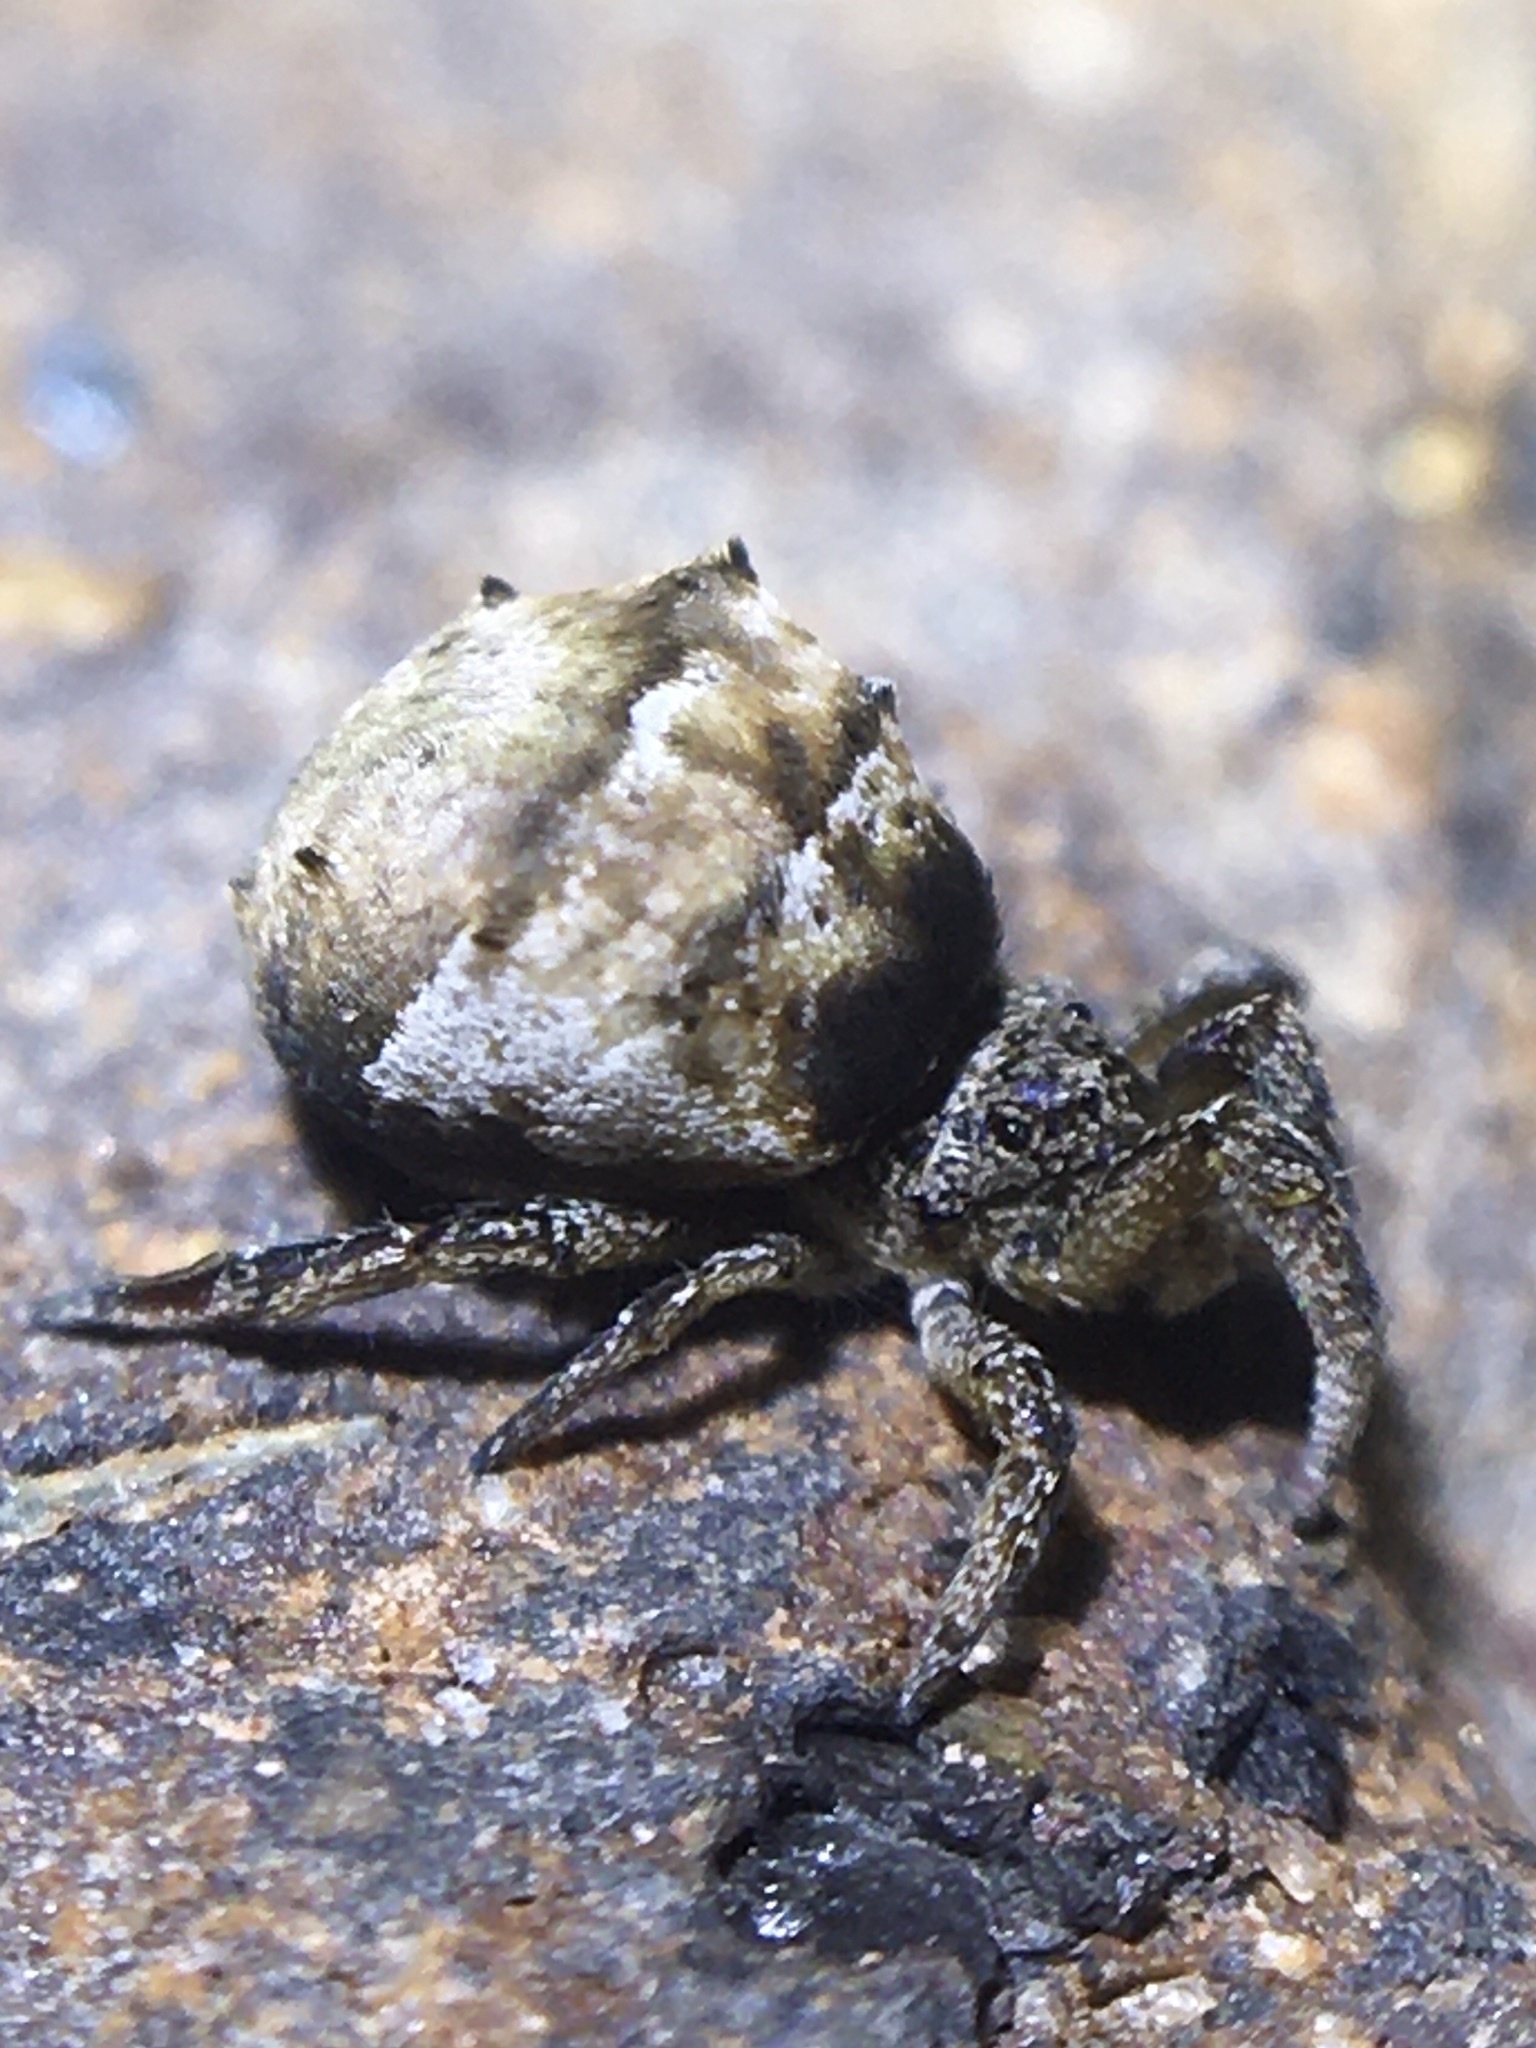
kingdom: Animalia
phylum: Arthropoda
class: Arachnida
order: Araneae
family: Uloboridae
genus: Hyptiotes
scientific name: Hyptiotes cavatus
